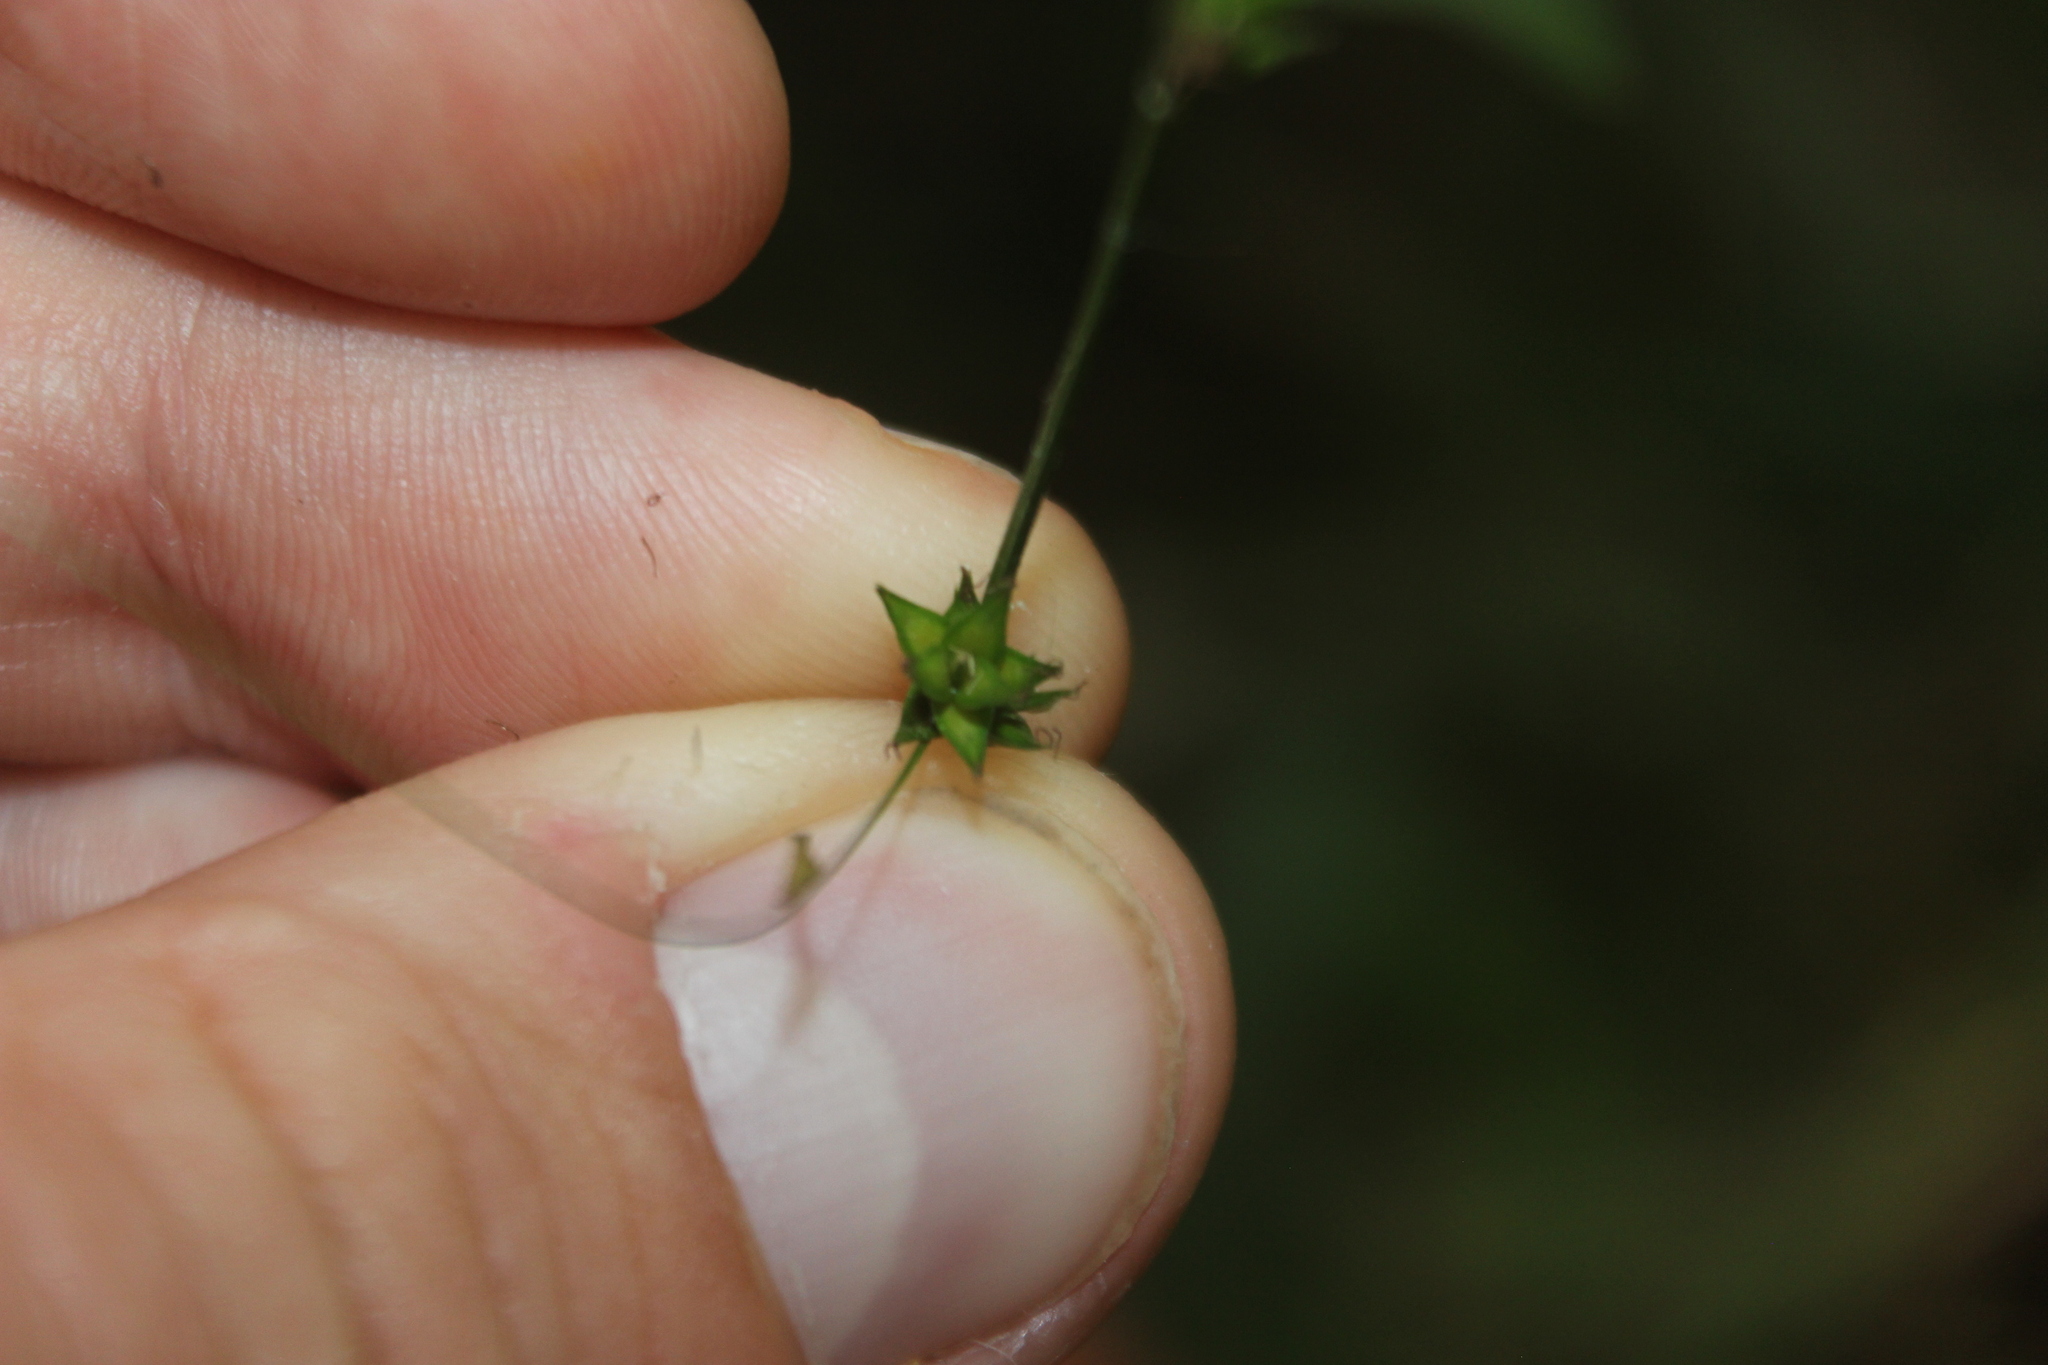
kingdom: Plantae
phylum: Tracheophyta
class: Liliopsida
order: Poales
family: Cyperaceae
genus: Carex
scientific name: Carex divulsa
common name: Grassland sedge
